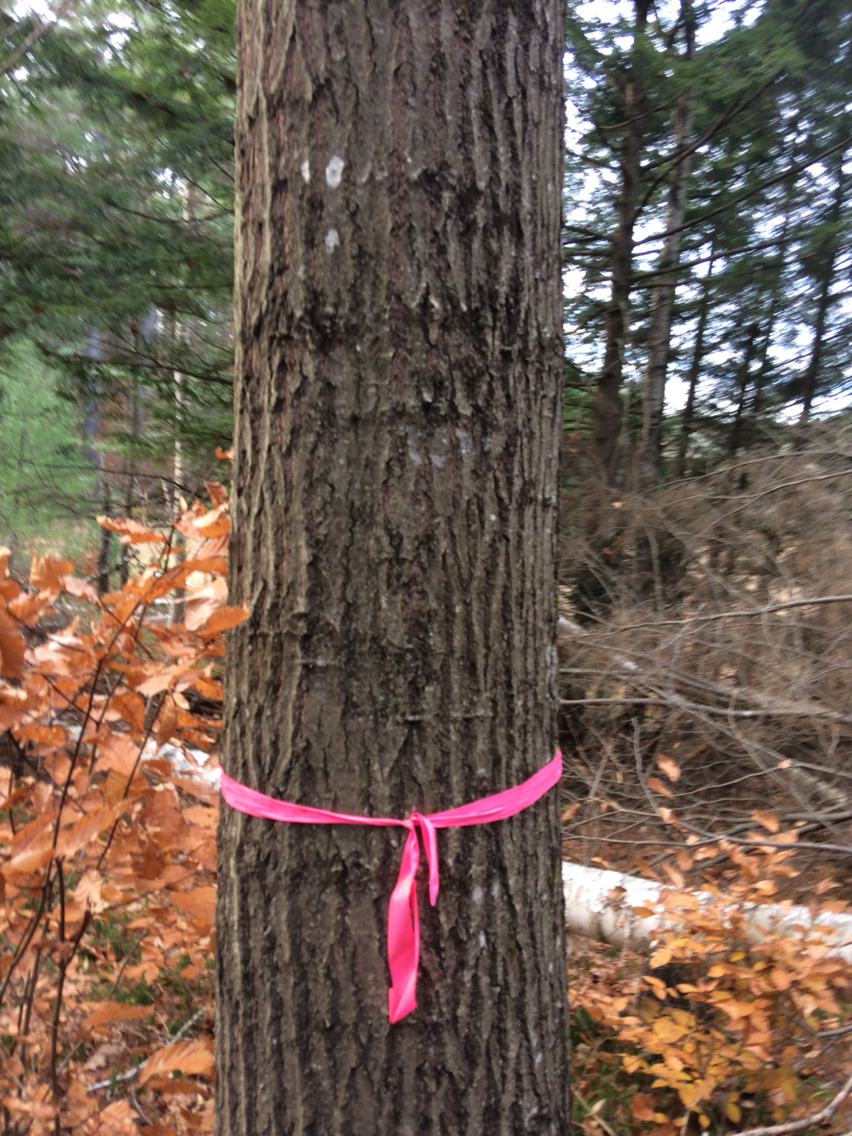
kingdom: Plantae
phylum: Tracheophyta
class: Magnoliopsida
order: Fagales
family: Fagaceae
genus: Quercus
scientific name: Quercus rubra
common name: Red oak
